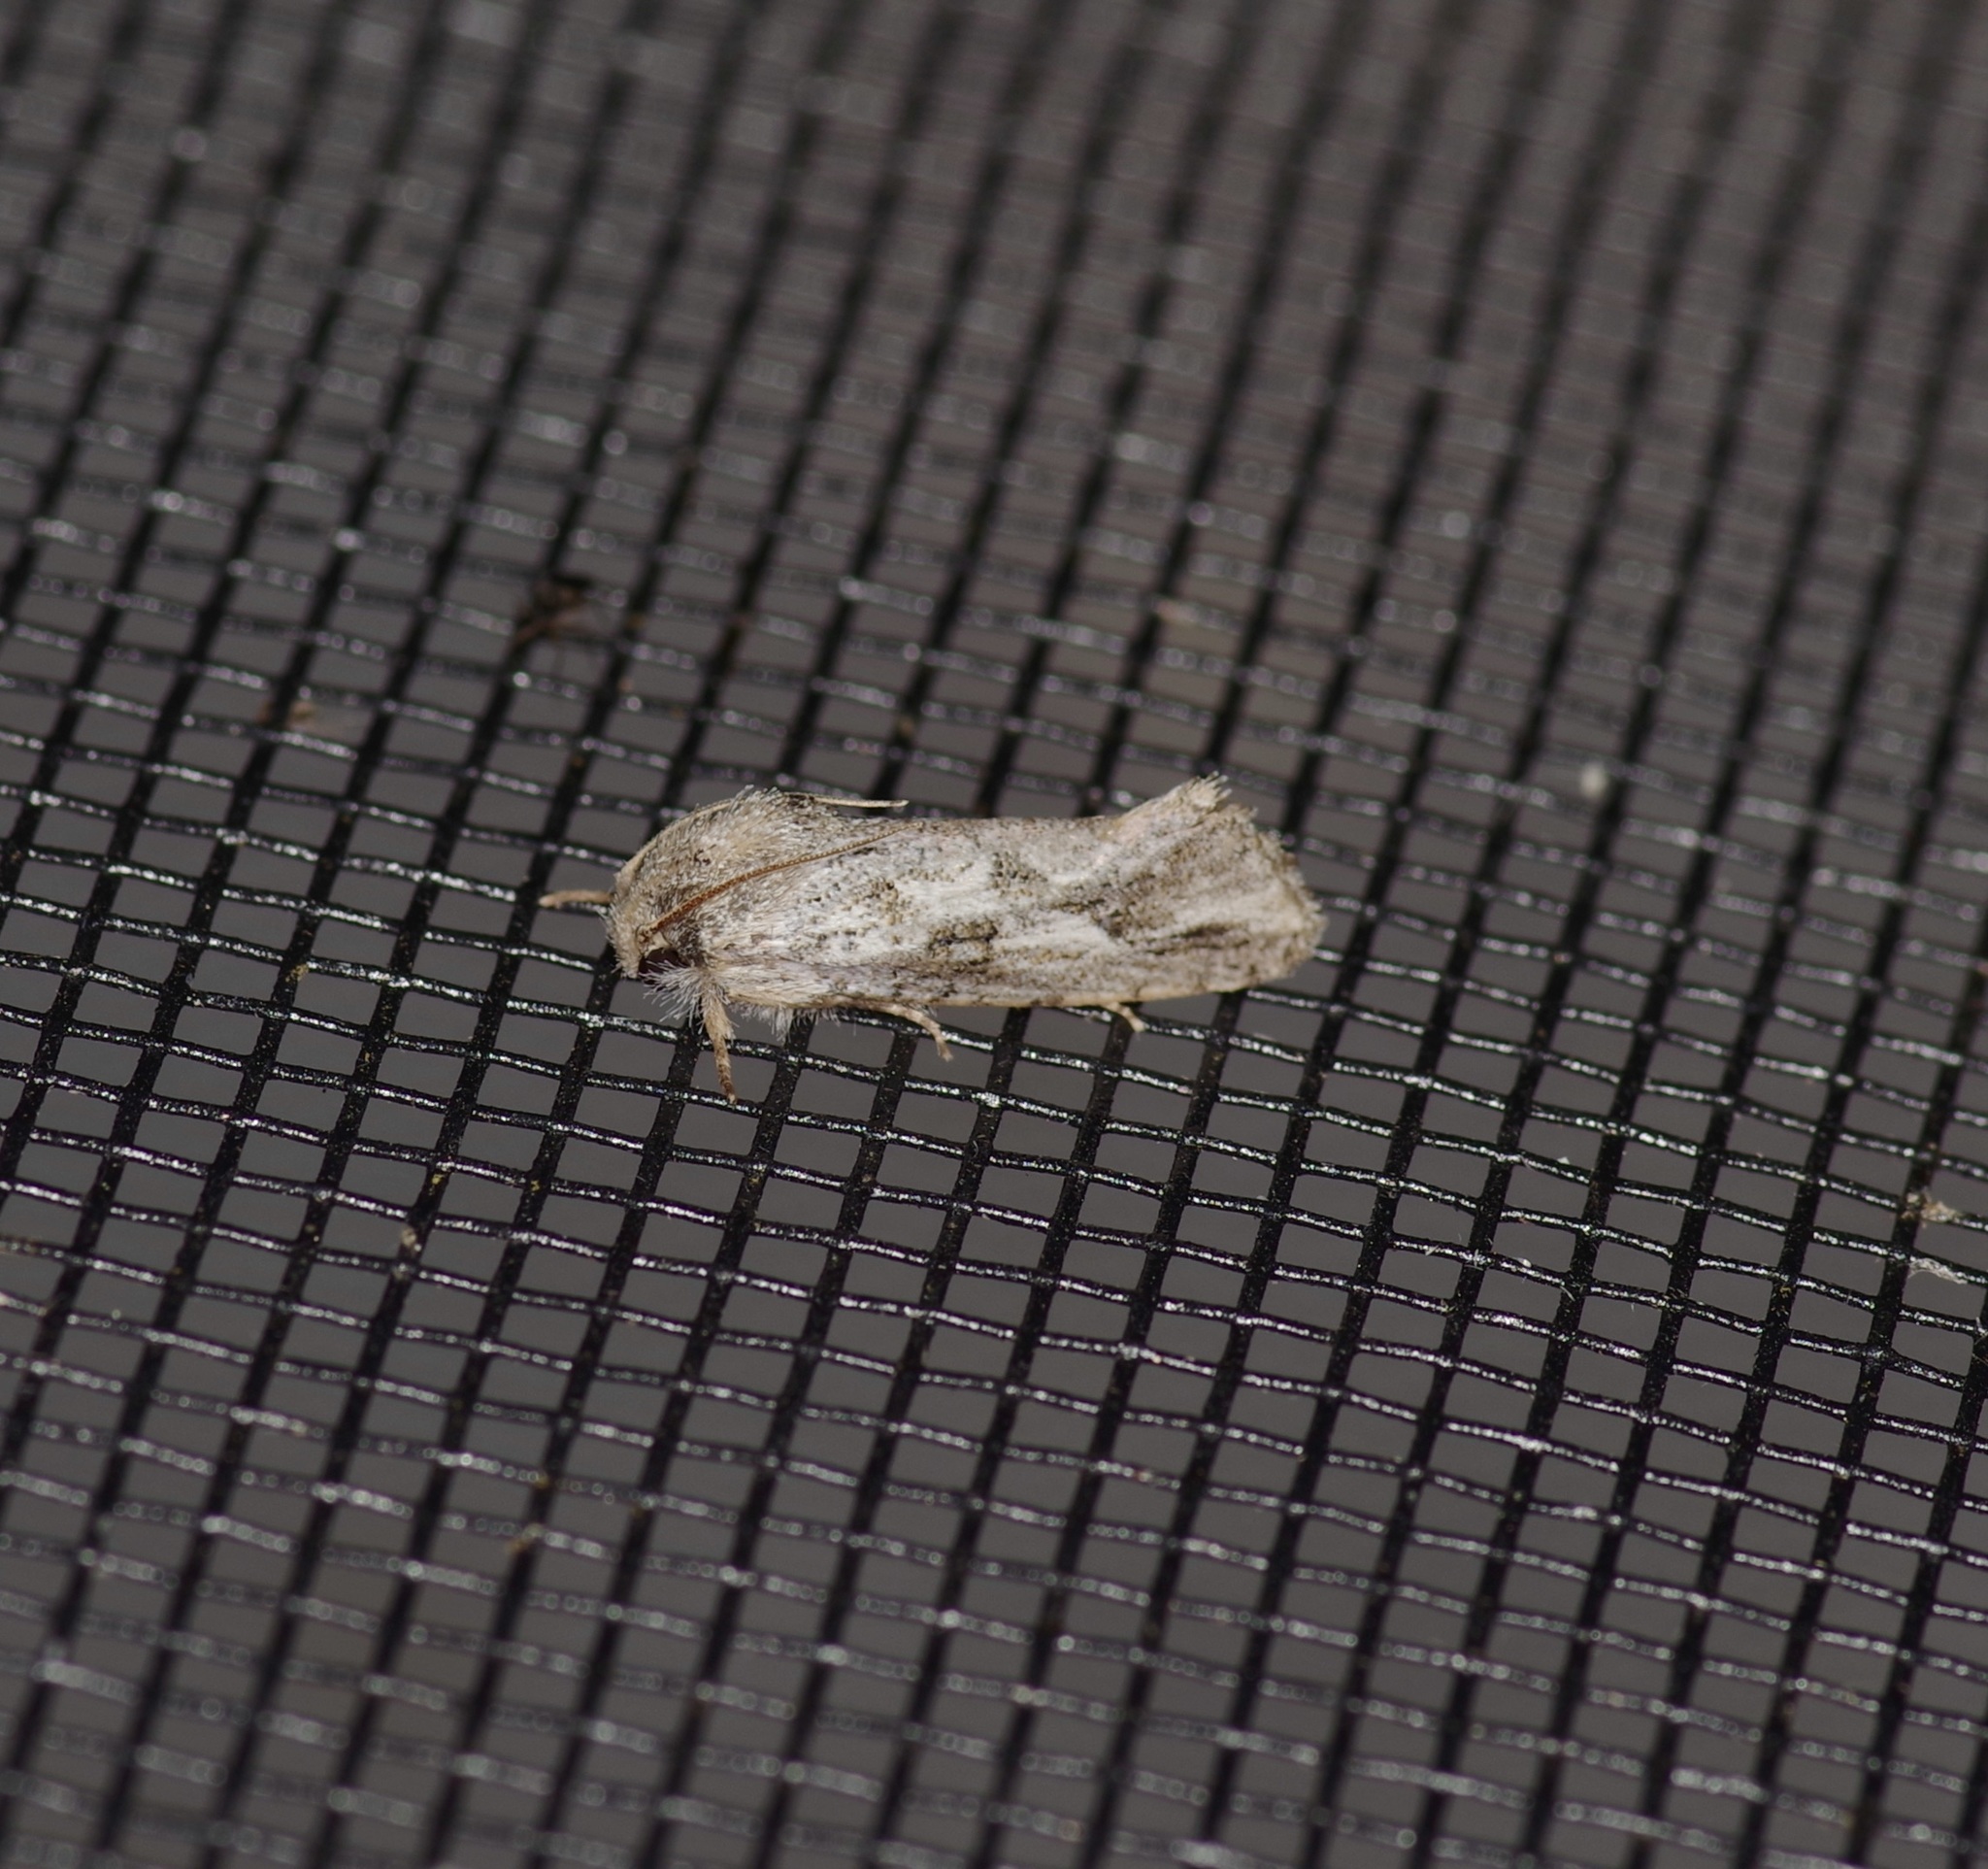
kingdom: Animalia
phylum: Arthropoda
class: Insecta
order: Lepidoptera
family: Tineidae
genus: Acrolophus
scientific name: Acrolophus griseus
